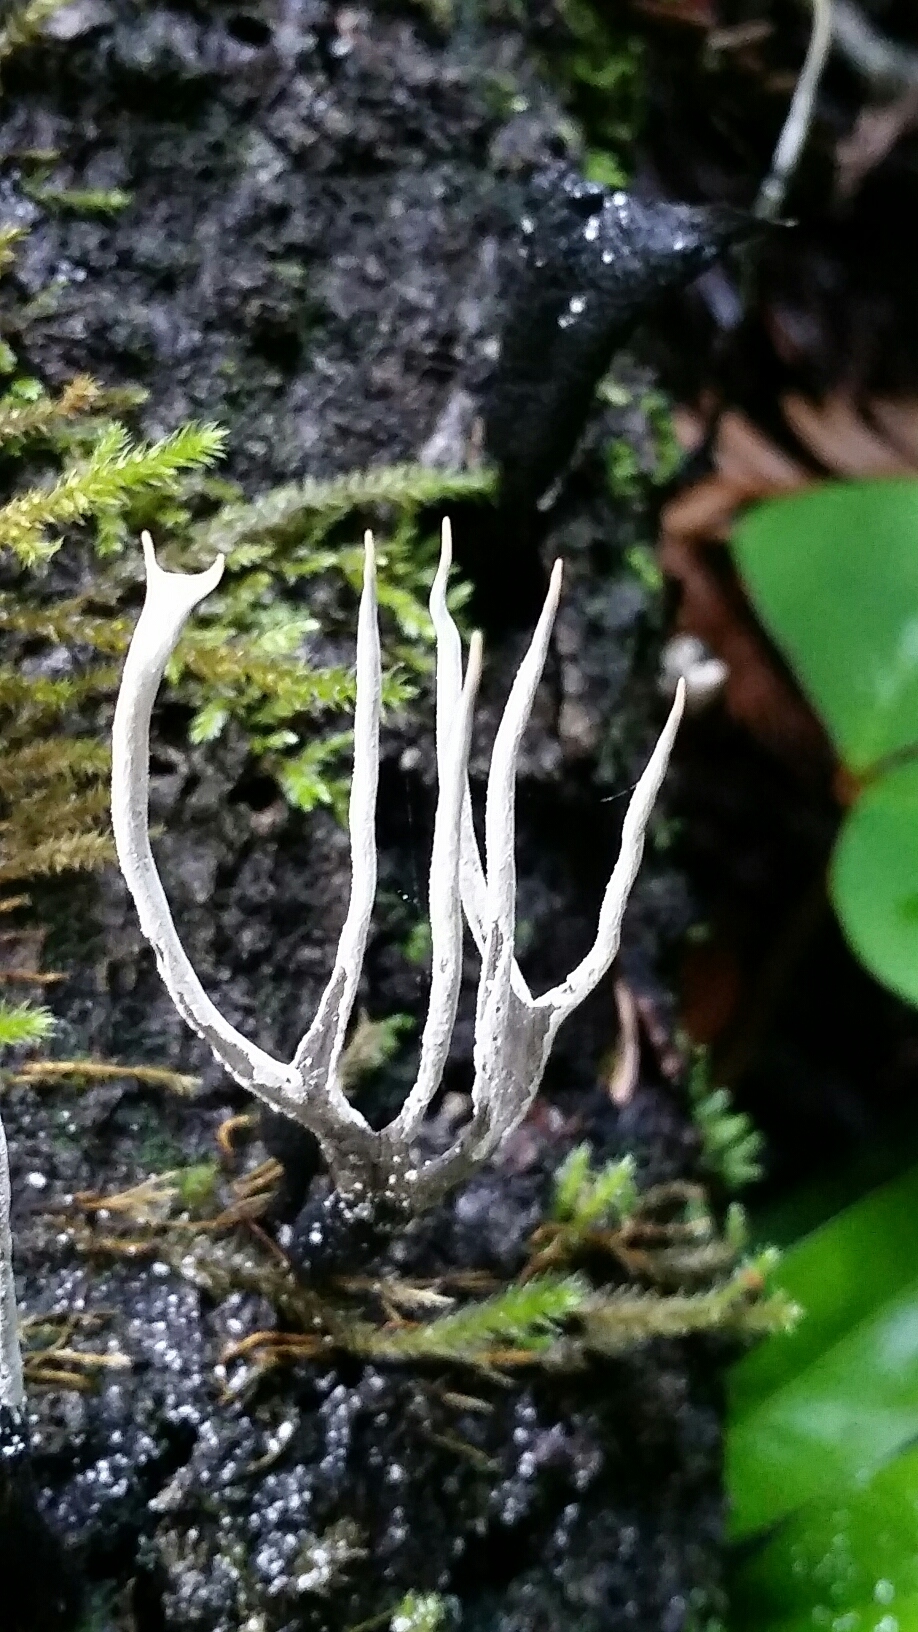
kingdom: Fungi
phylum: Ascomycota
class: Sordariomycetes
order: Xylariales
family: Xylariaceae
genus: Xylaria
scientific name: Xylaria hypoxylon
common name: Candle-snuff fungus
